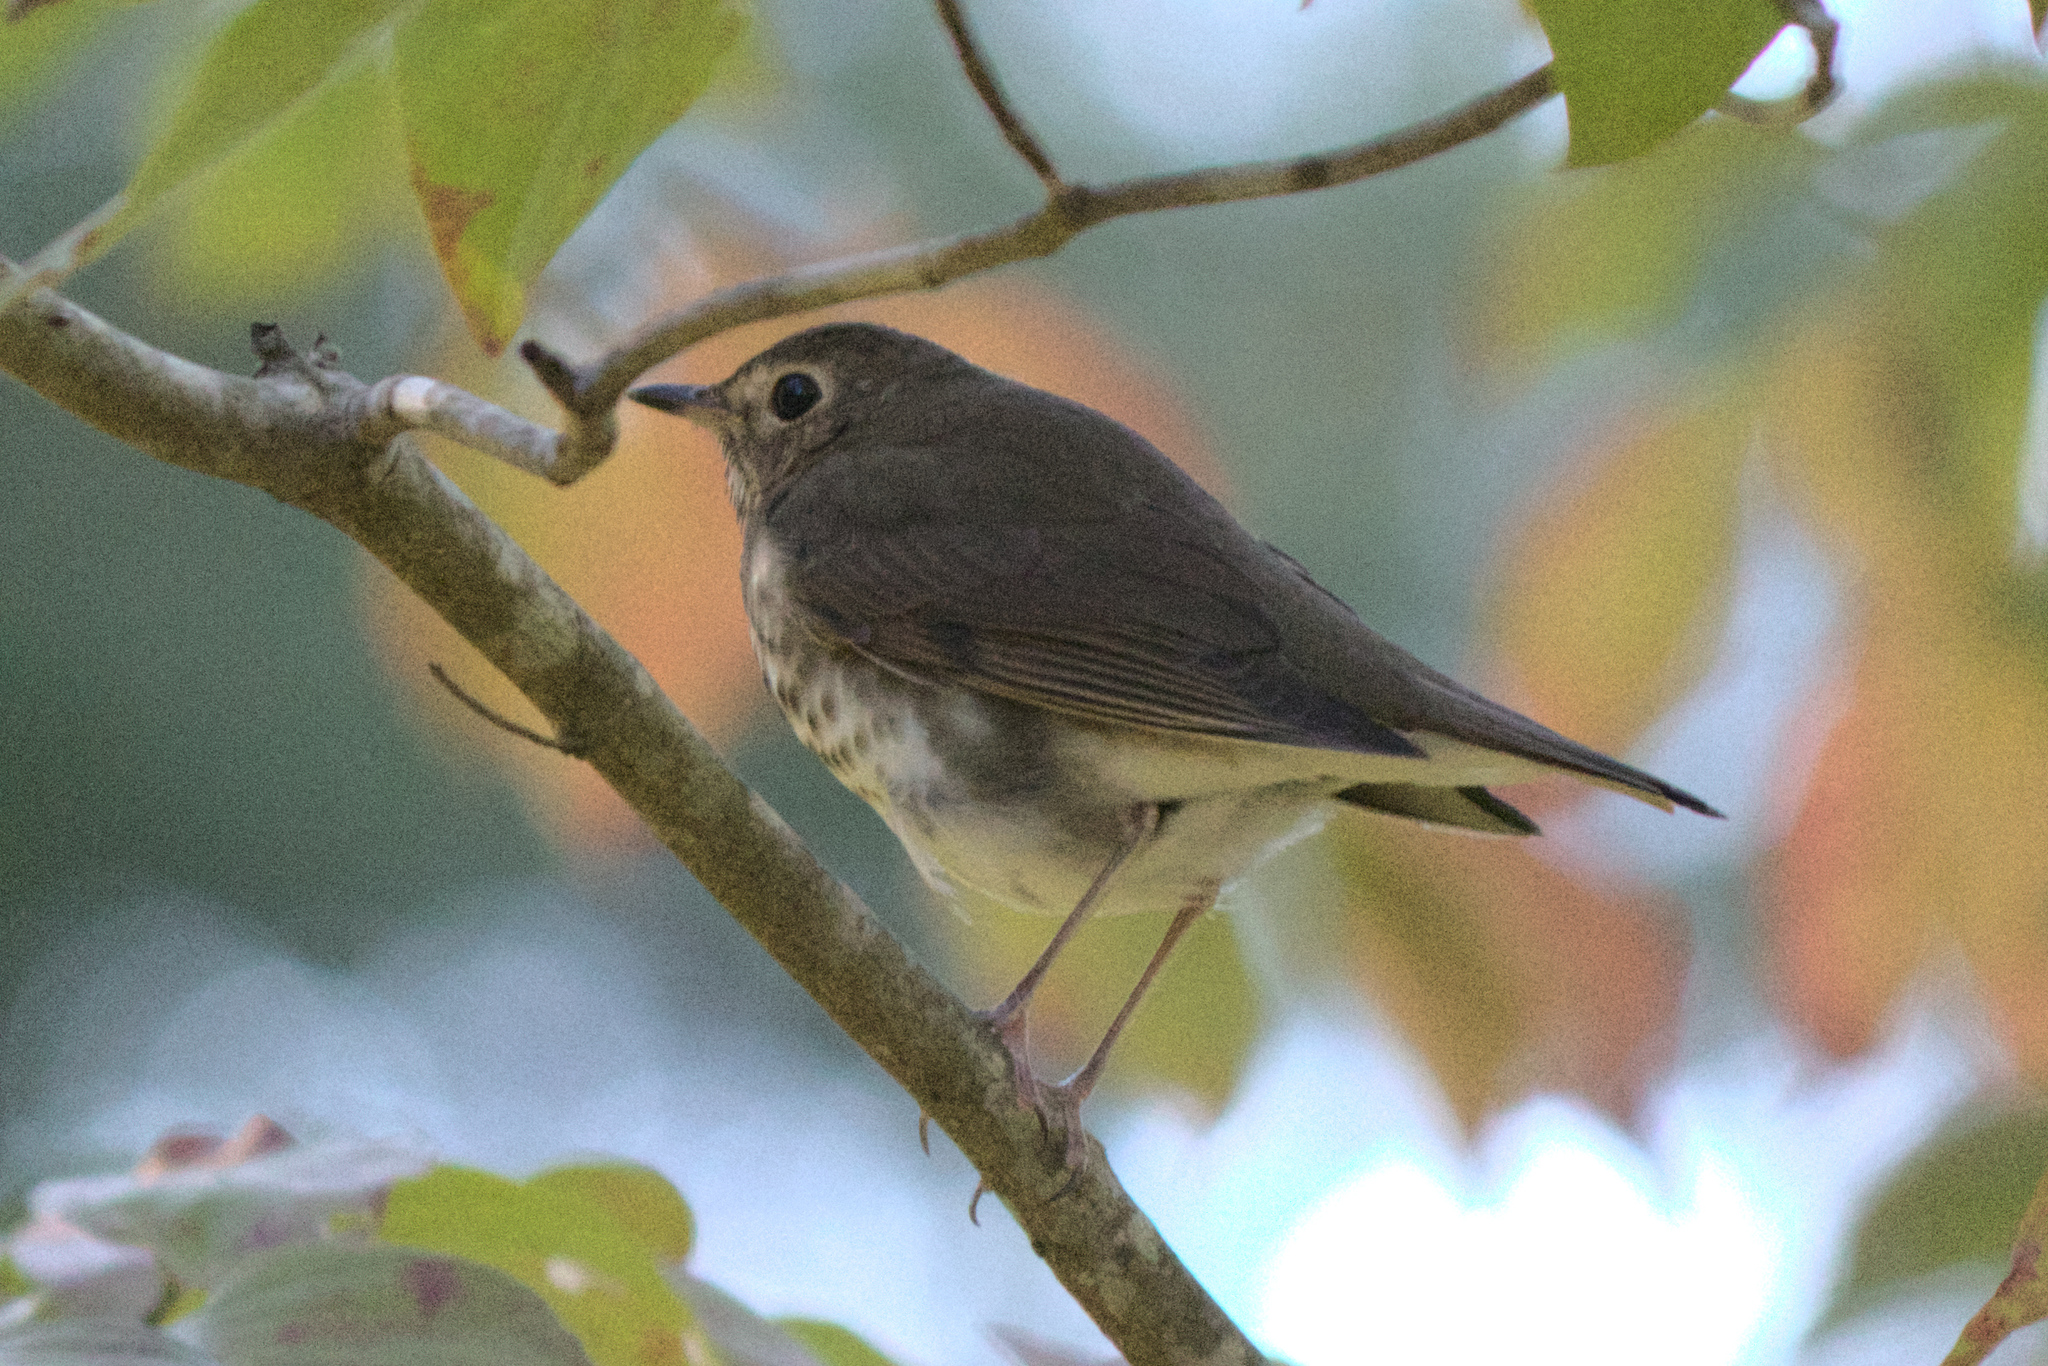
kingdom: Animalia
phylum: Chordata
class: Aves
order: Passeriformes
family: Turdidae
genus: Catharus
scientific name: Catharus ustulatus
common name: Swainson's thrush
